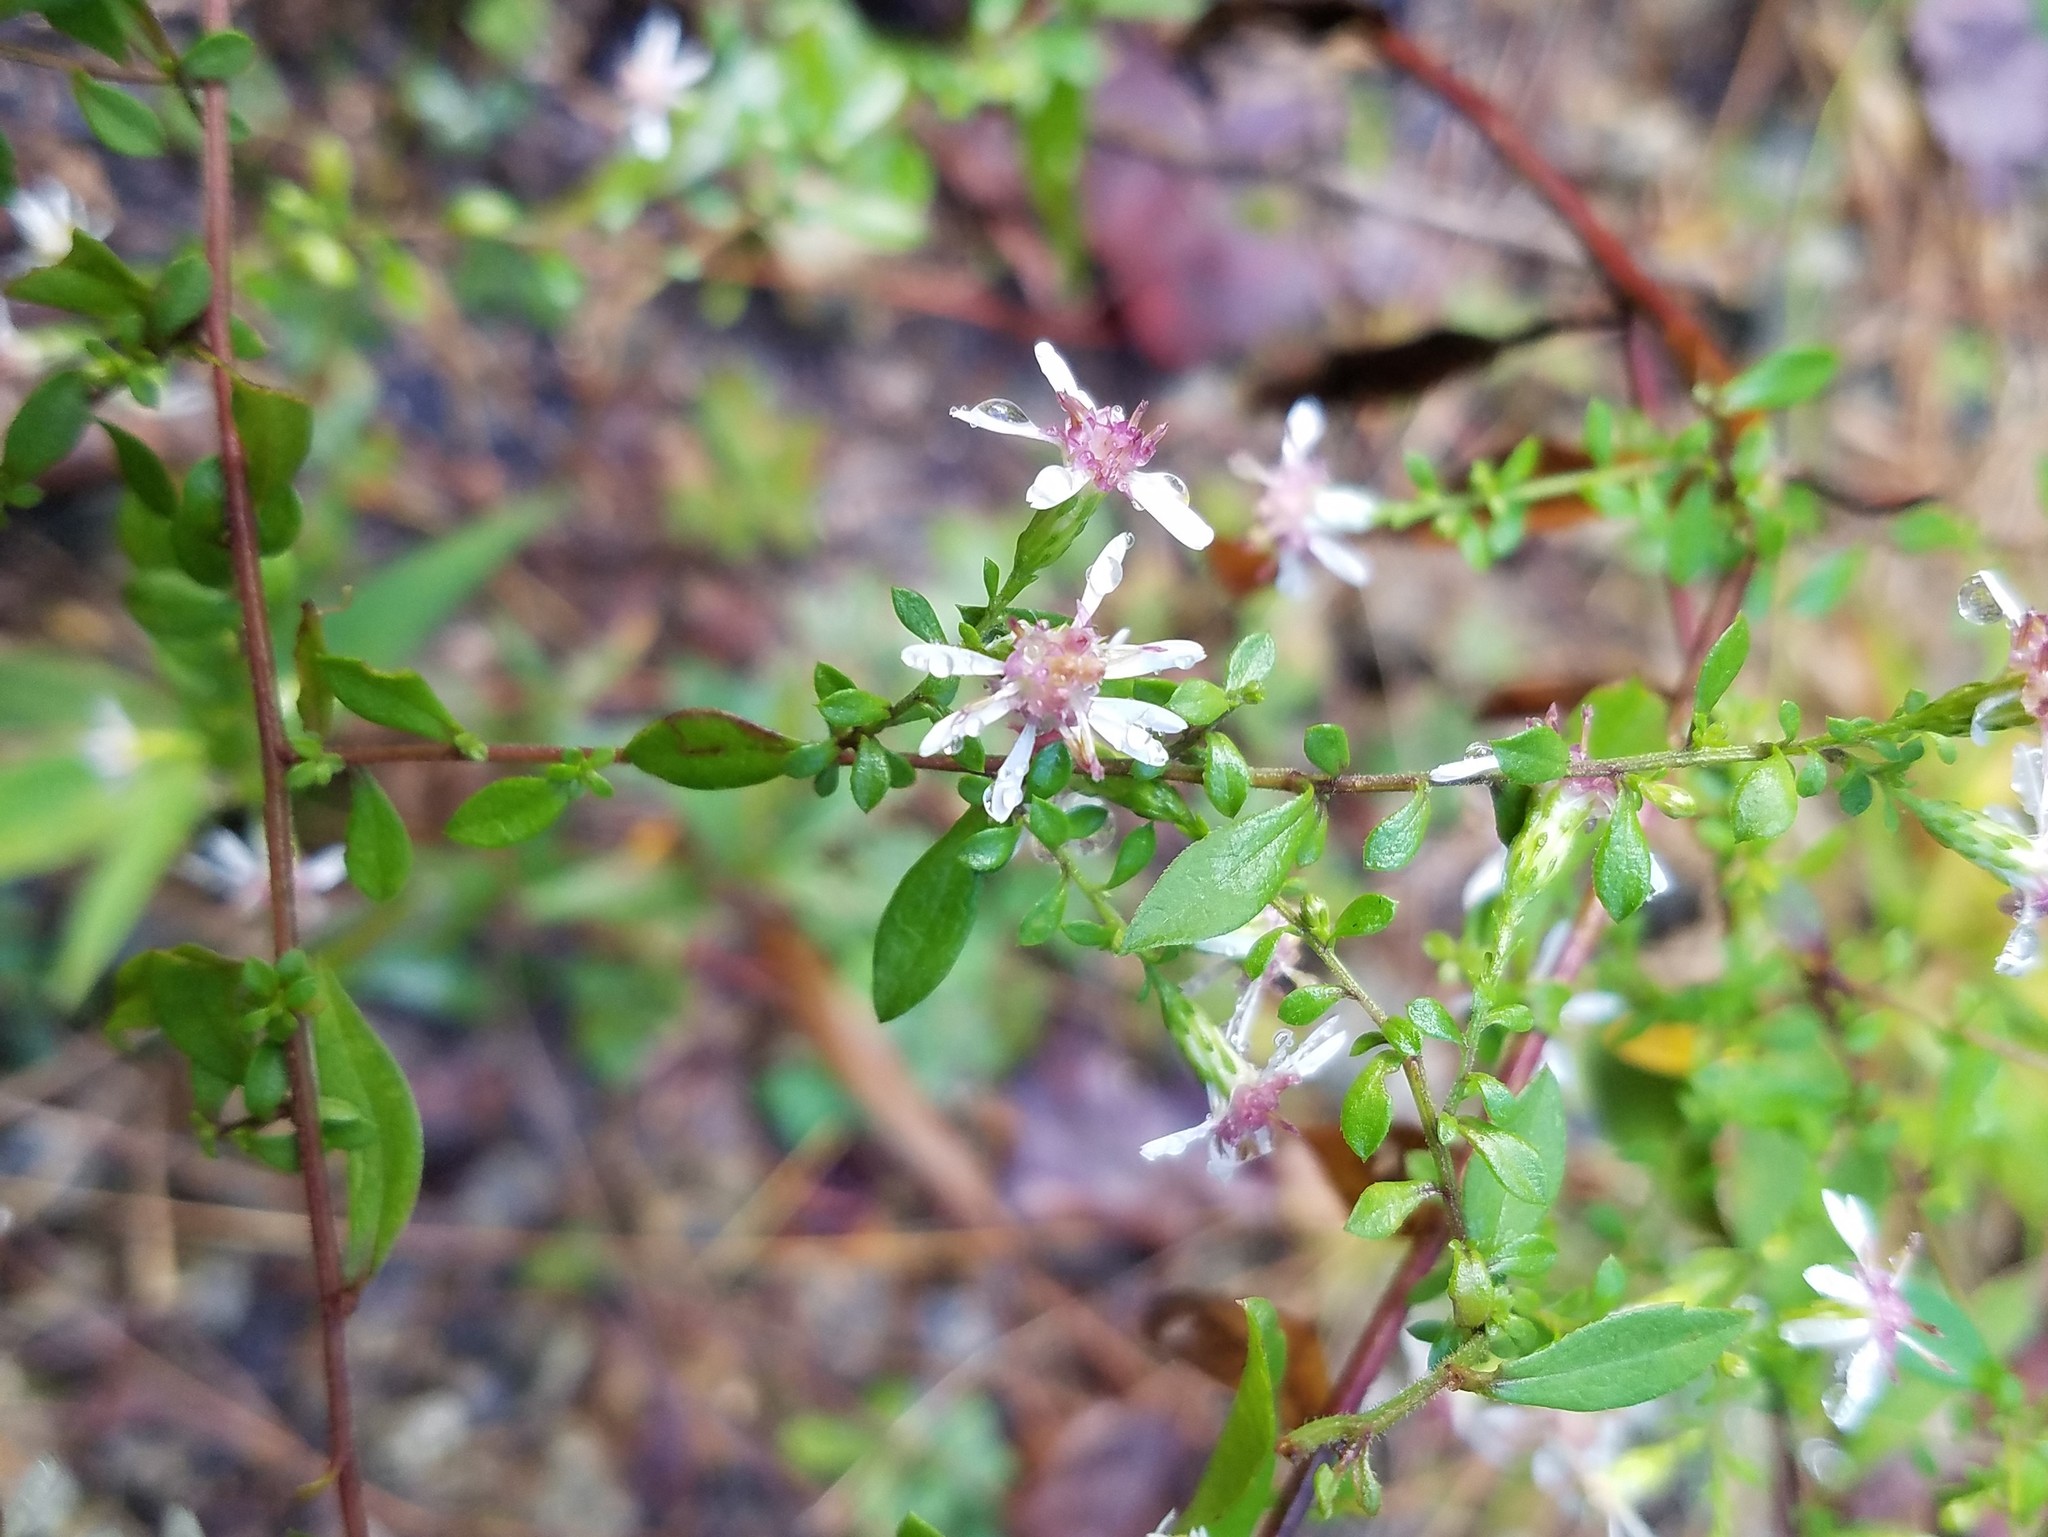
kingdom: Plantae
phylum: Tracheophyta
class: Magnoliopsida
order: Asterales
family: Asteraceae
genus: Symphyotrichum
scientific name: Symphyotrichum lateriflorum
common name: Calico aster
